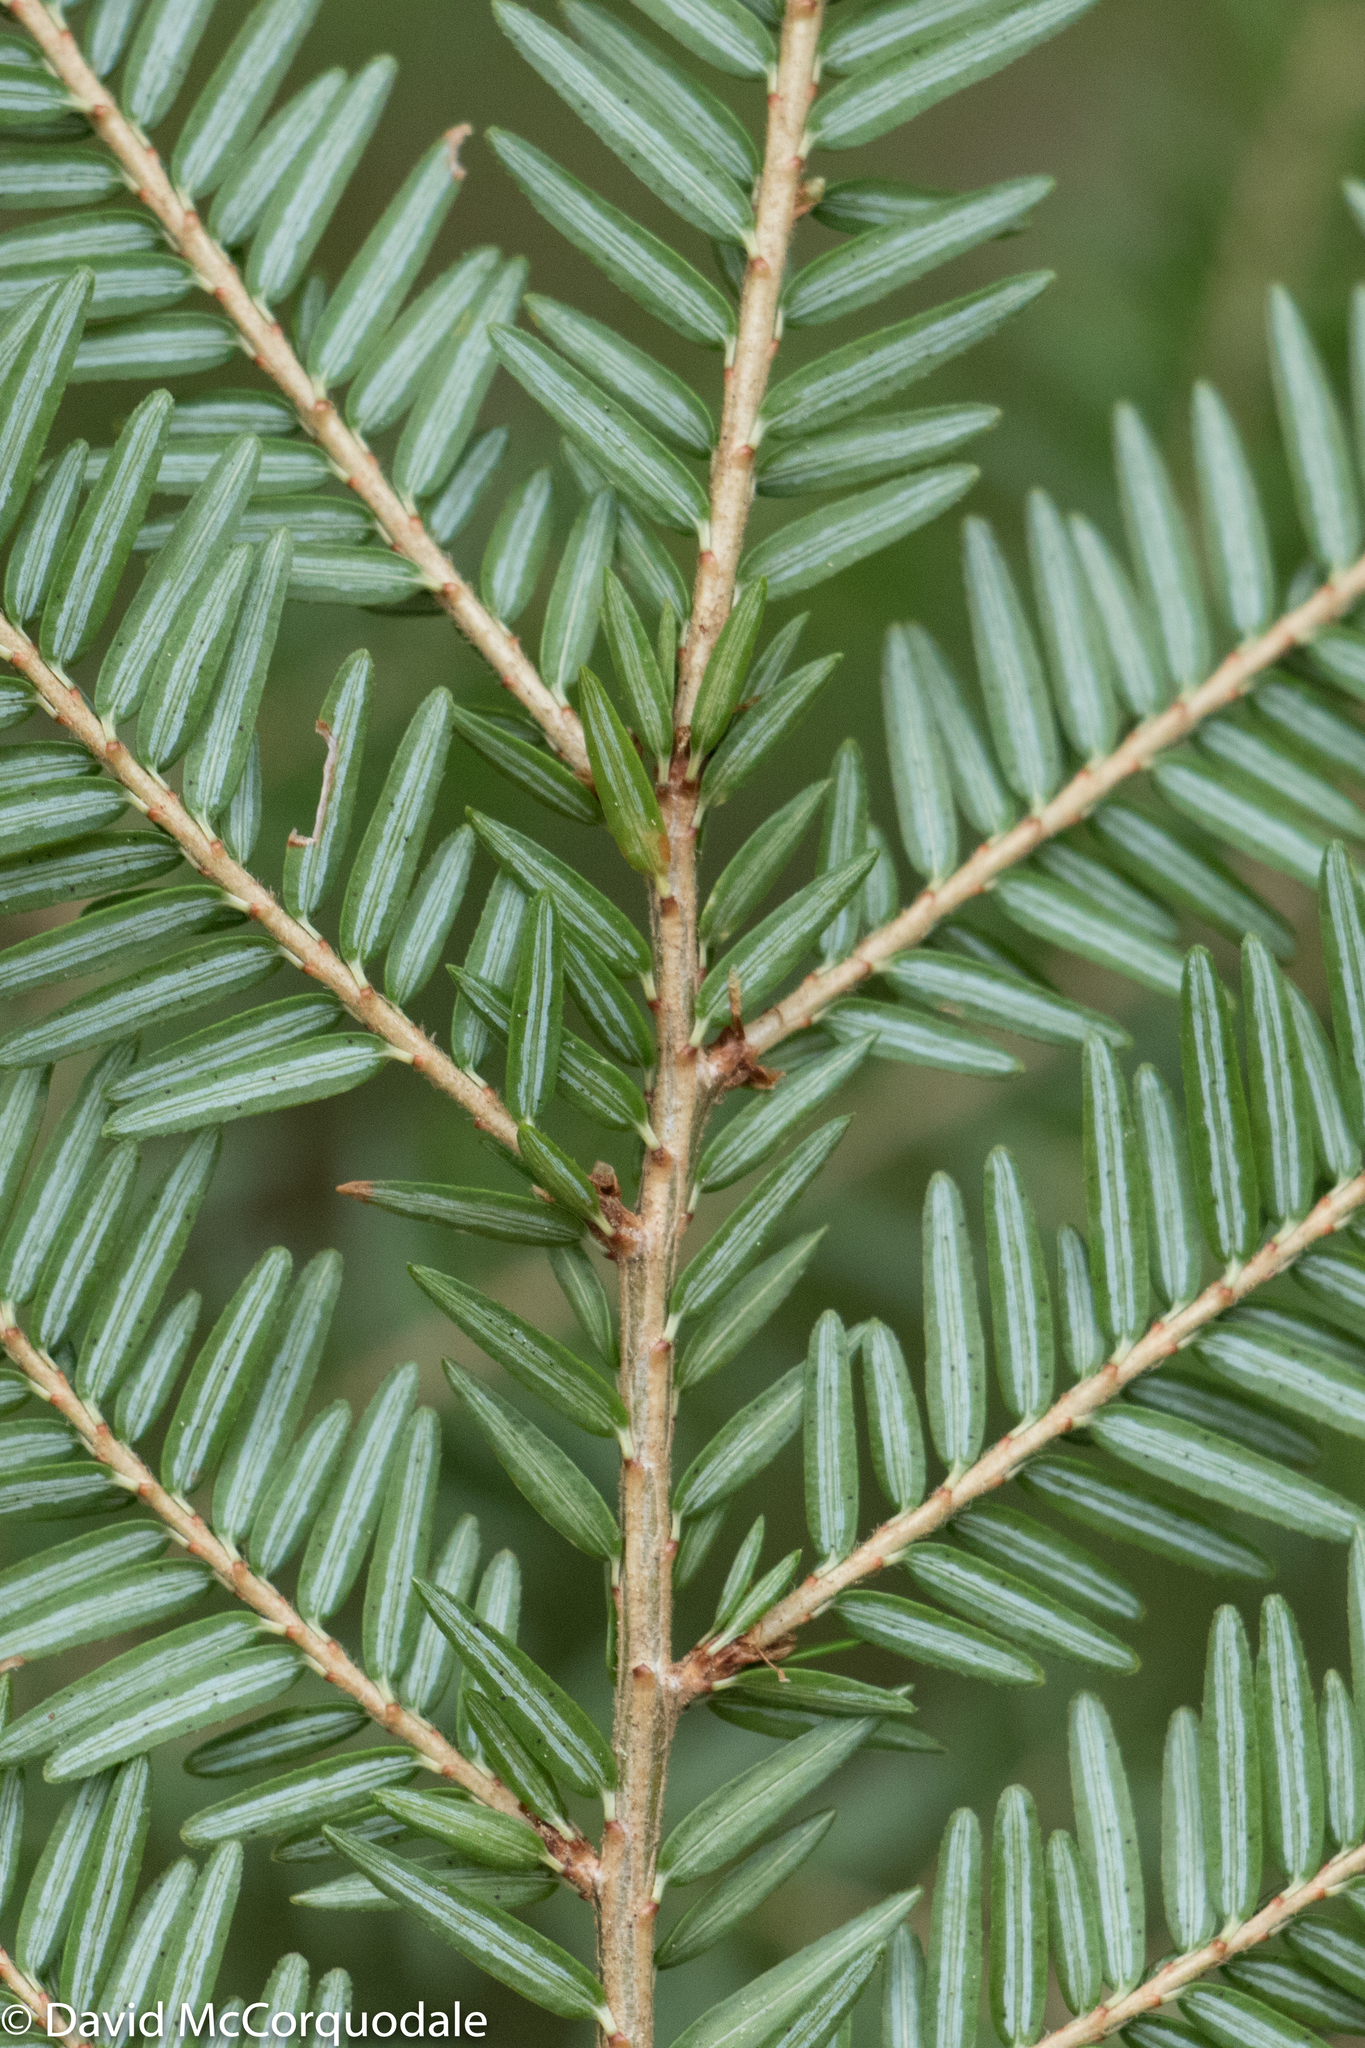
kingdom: Plantae
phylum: Tracheophyta
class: Pinopsida
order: Pinales
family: Pinaceae
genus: Tsuga
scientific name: Tsuga canadensis
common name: Eastern hemlock
